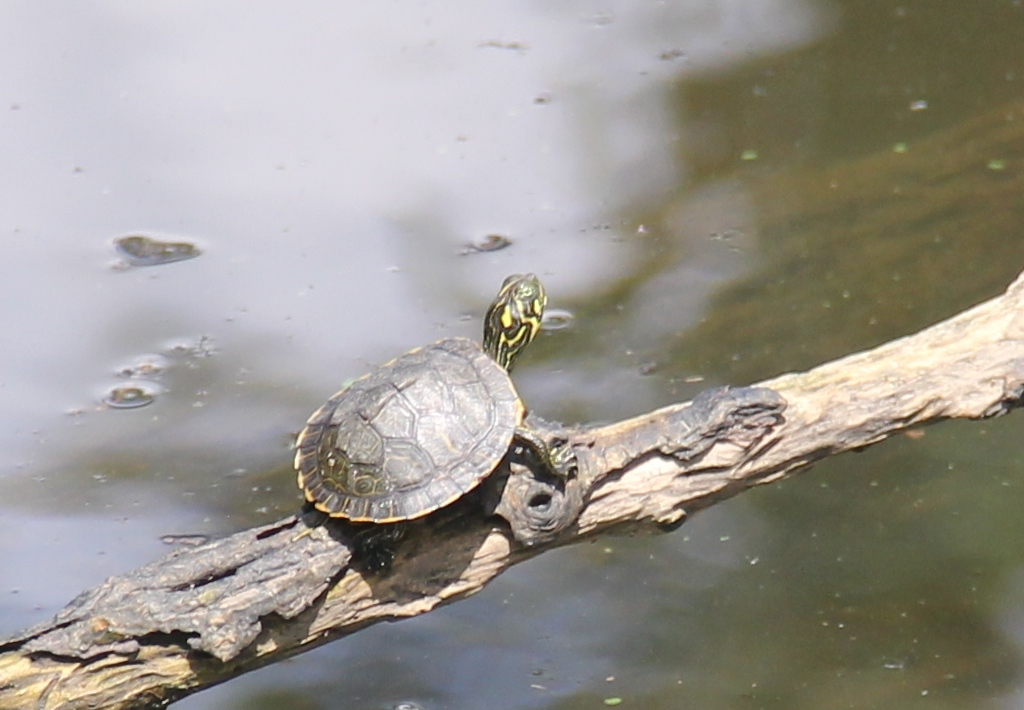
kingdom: Animalia
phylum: Chordata
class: Testudines
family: Emydidae
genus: Pseudemys
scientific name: Pseudemys concinna
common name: Eastern river cooter
